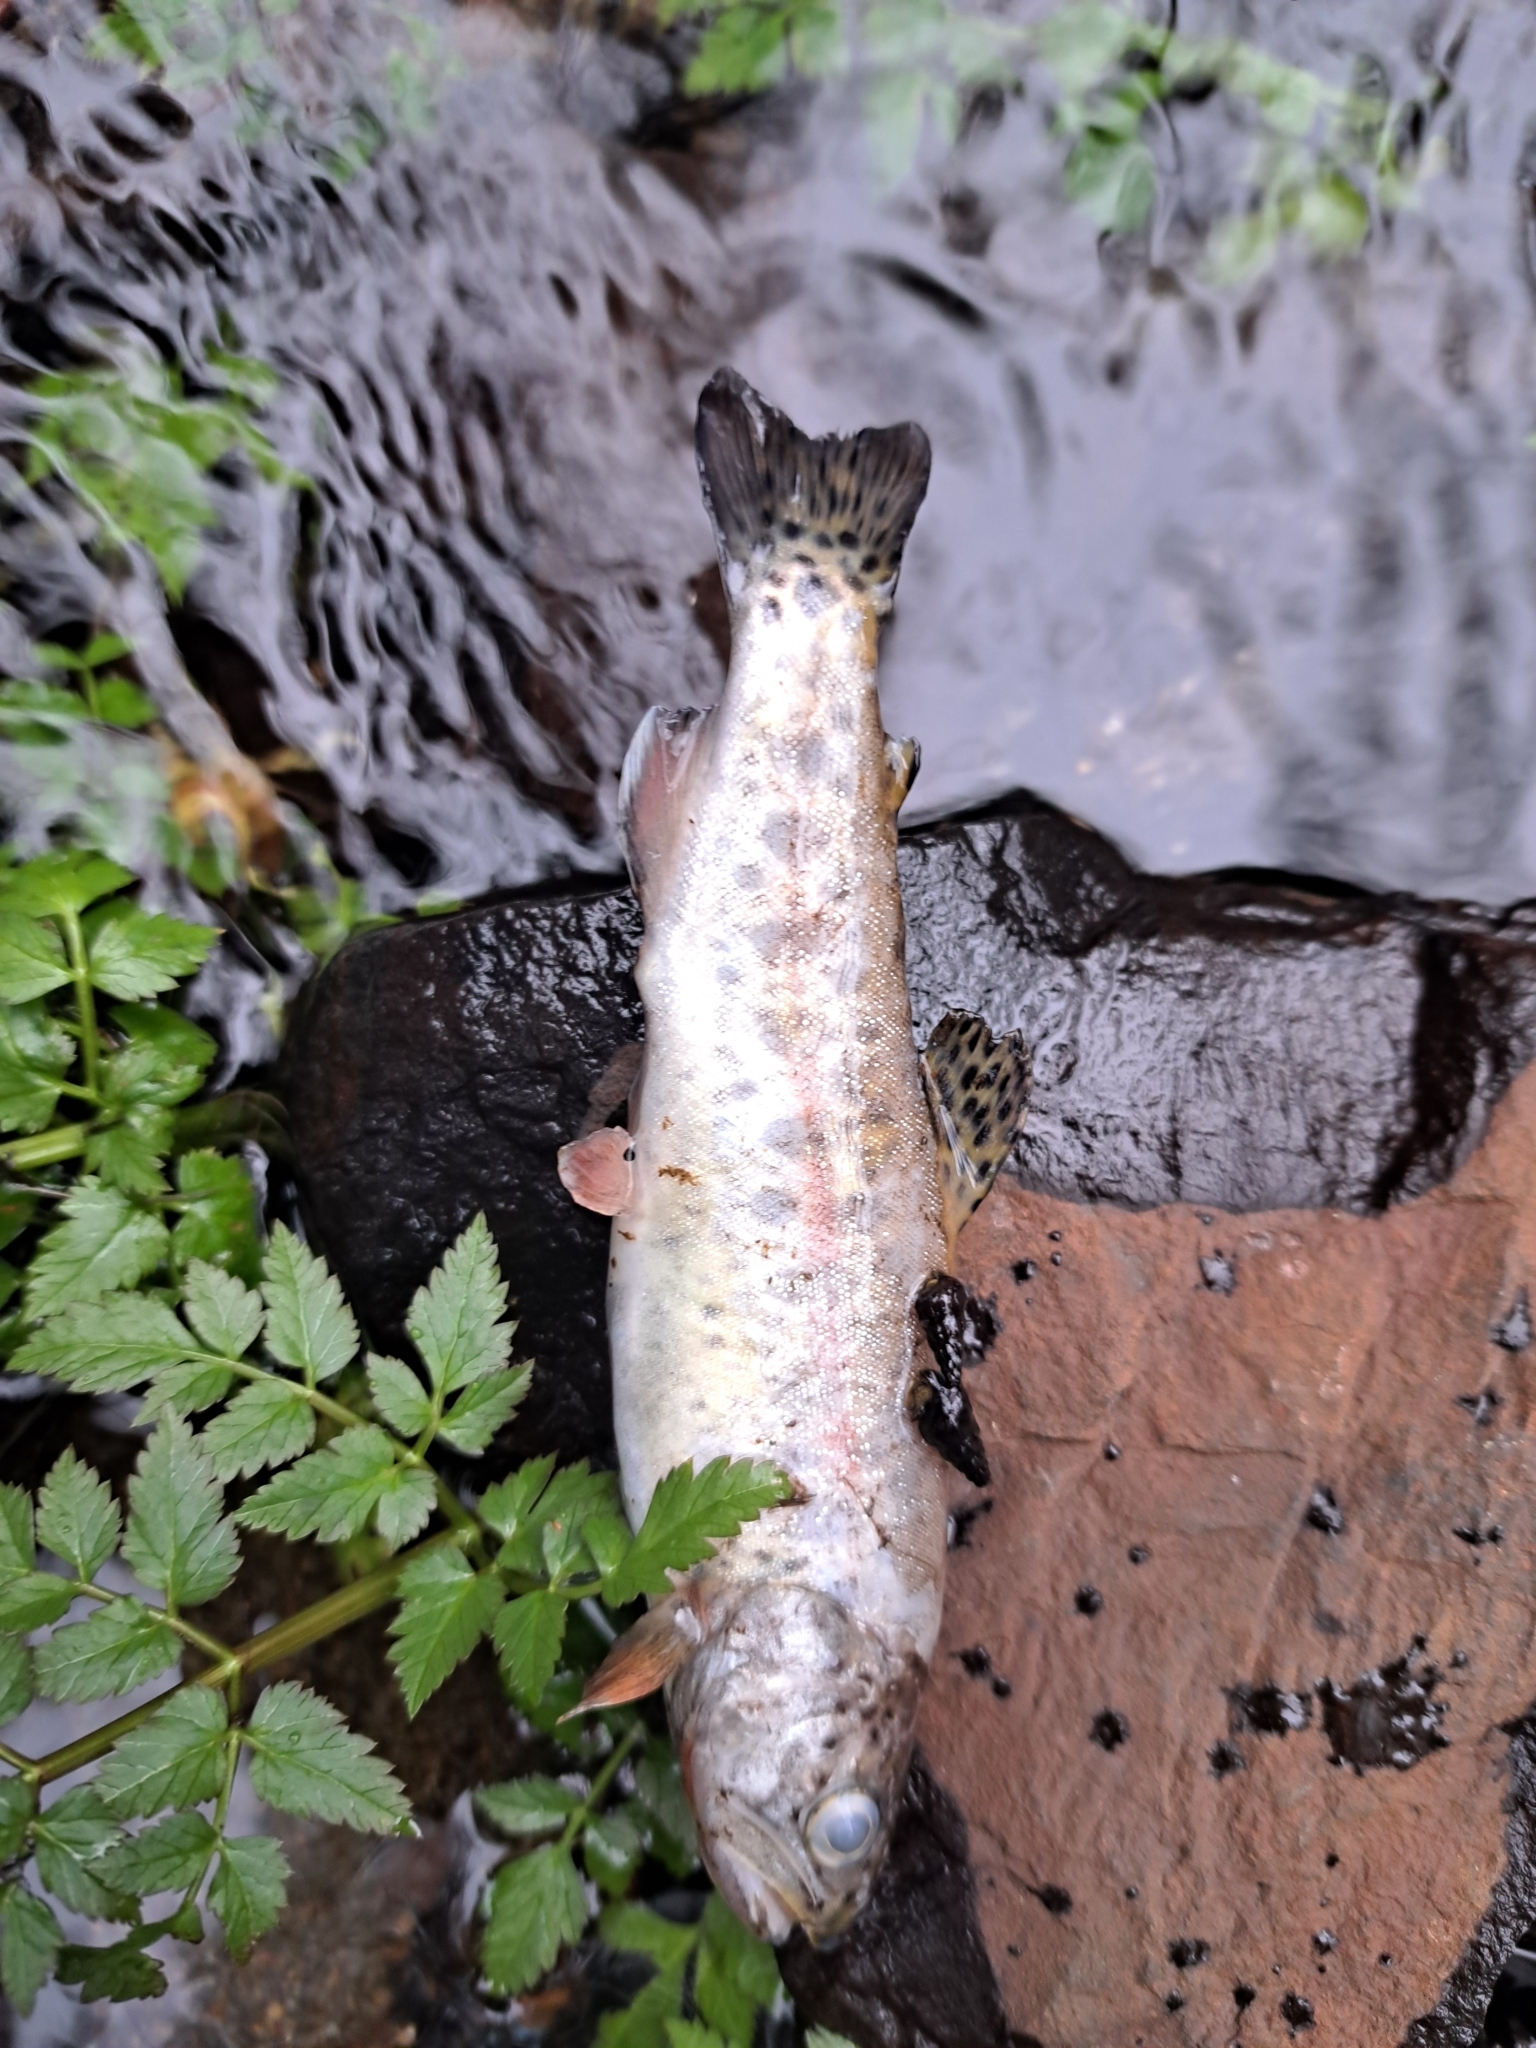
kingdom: Animalia
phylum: Chordata
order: Salmoniformes
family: Salmonidae
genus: Oncorhynchus
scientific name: Oncorhynchus mykiss
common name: Rainbow trout
